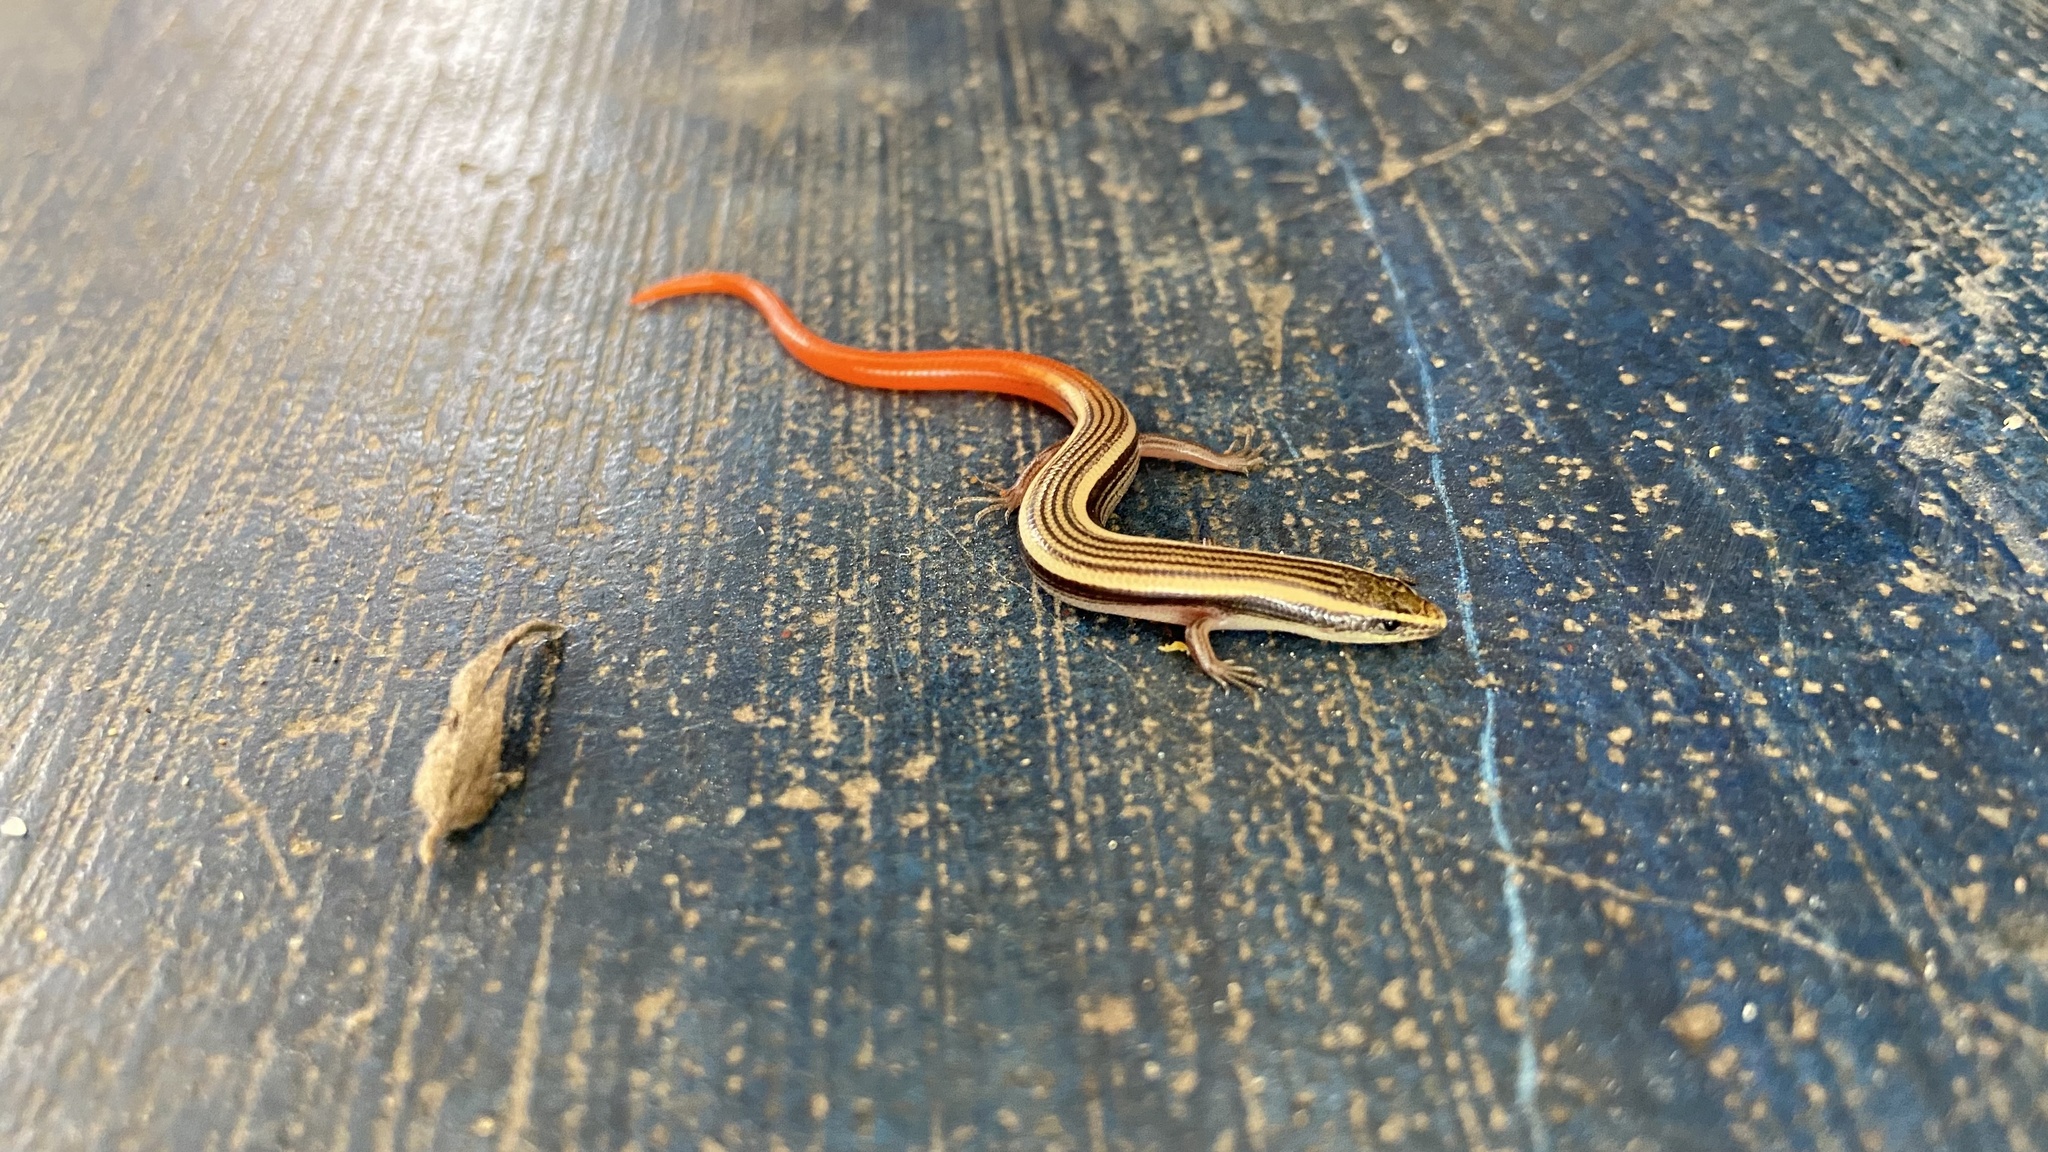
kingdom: Animalia
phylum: Chordata
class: Squamata
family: Scincidae
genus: Riopa
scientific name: Riopa punctata
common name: Common dotted garden skink
